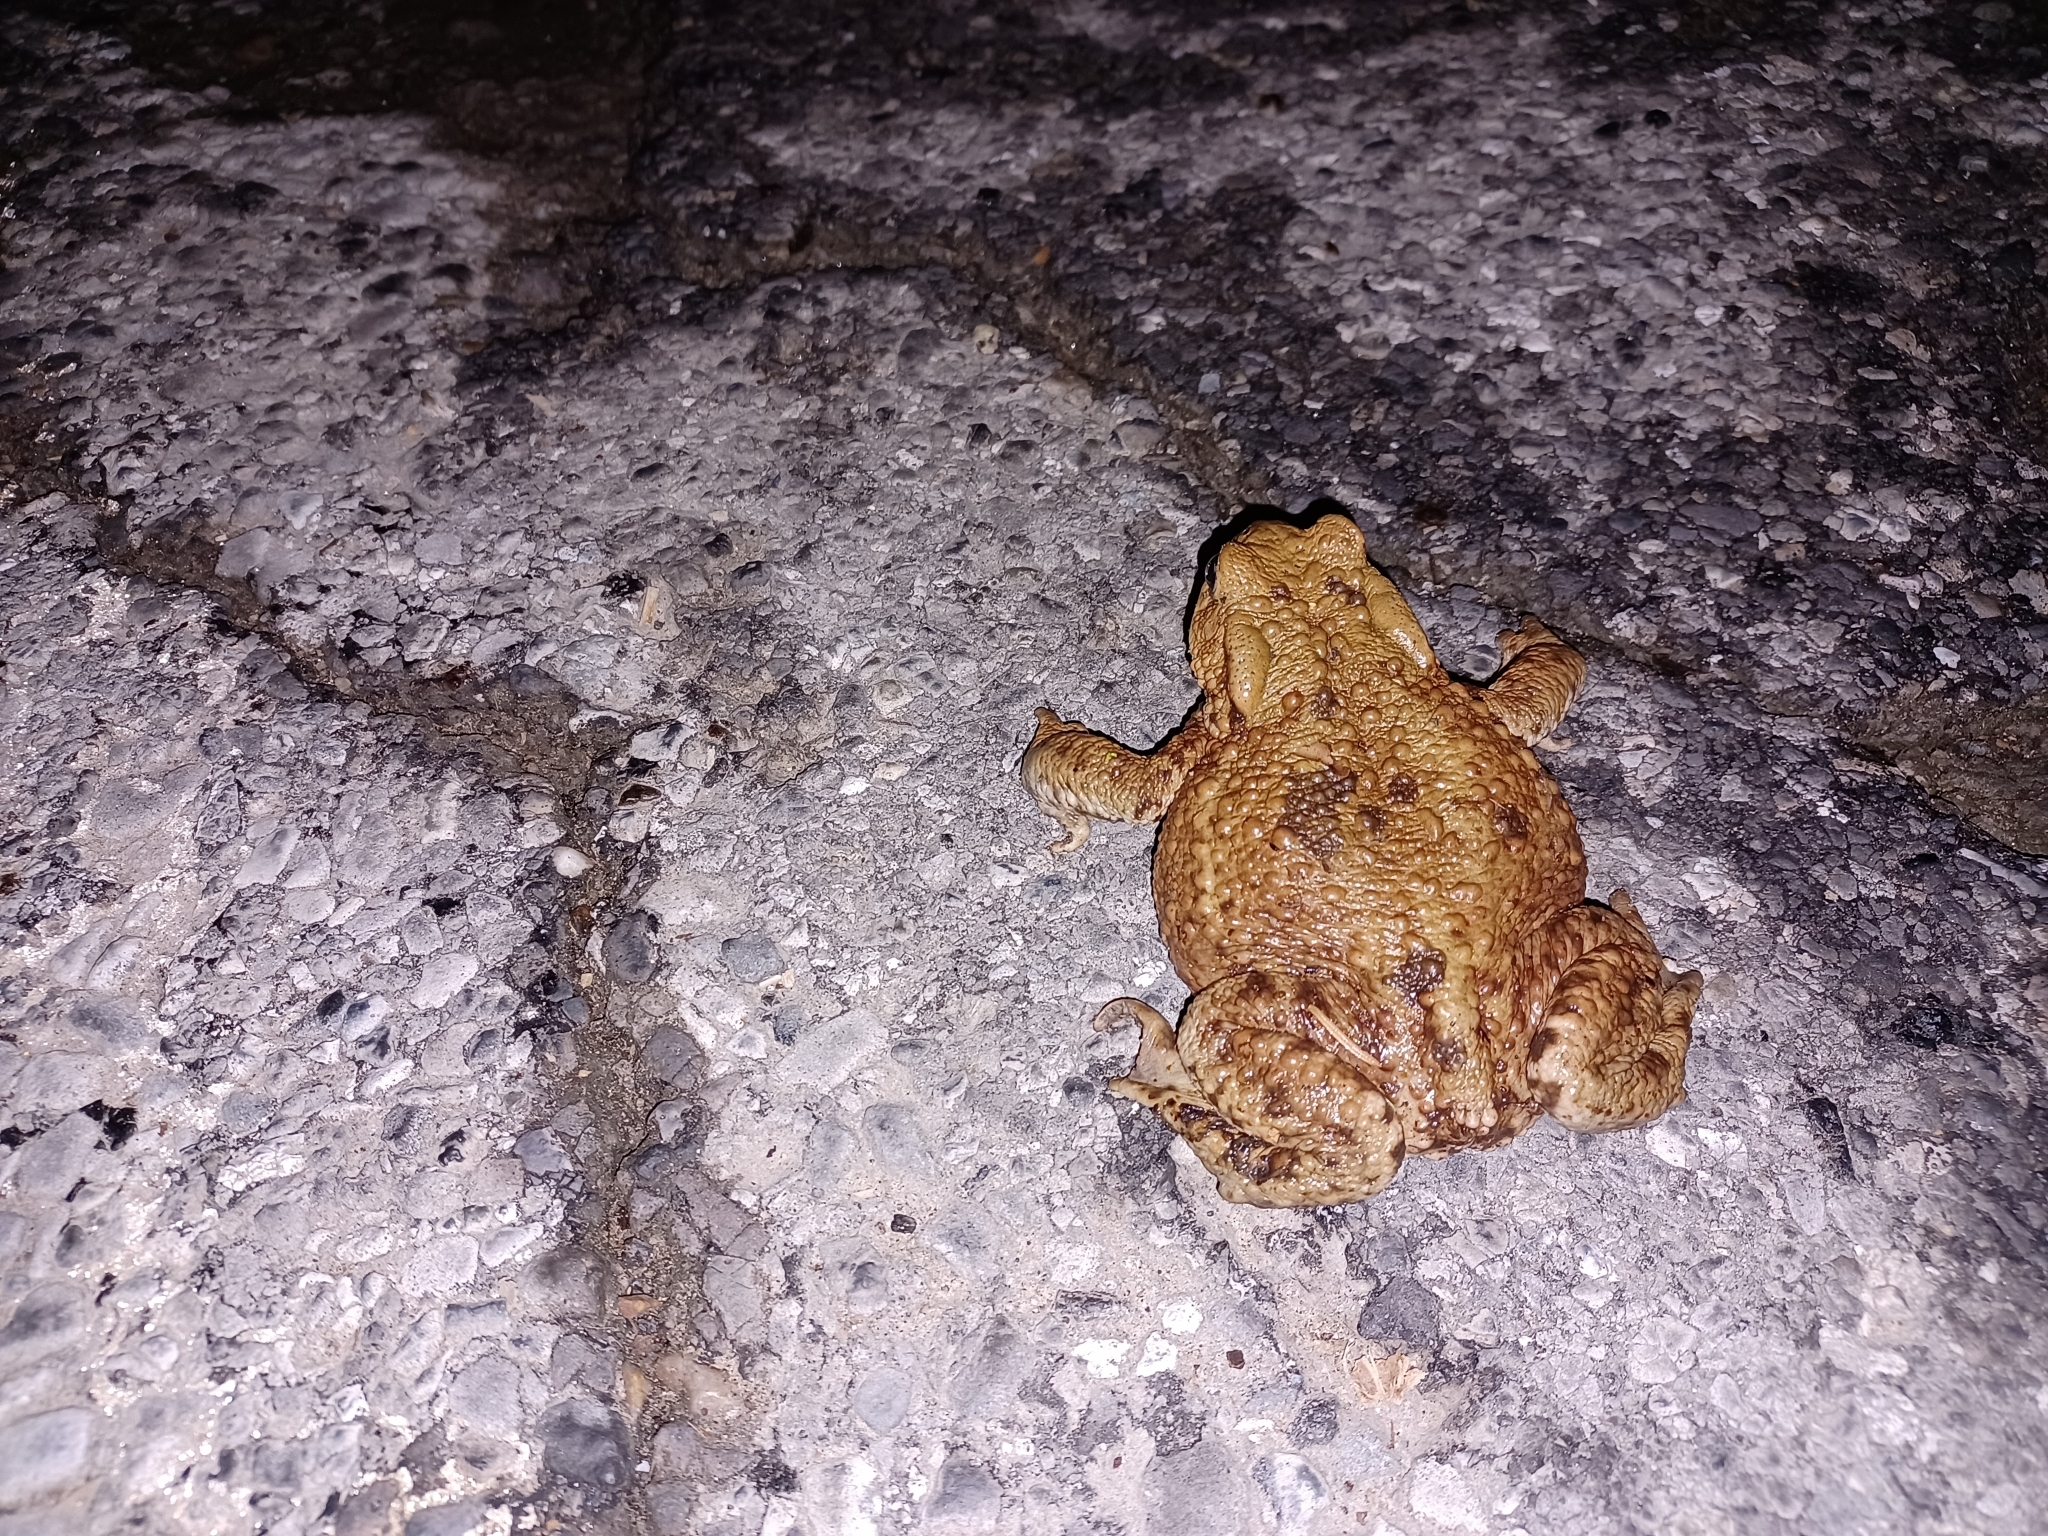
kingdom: Animalia
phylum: Chordata
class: Amphibia
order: Anura
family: Bufonidae
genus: Bufo
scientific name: Bufo bufo
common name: Common toad
